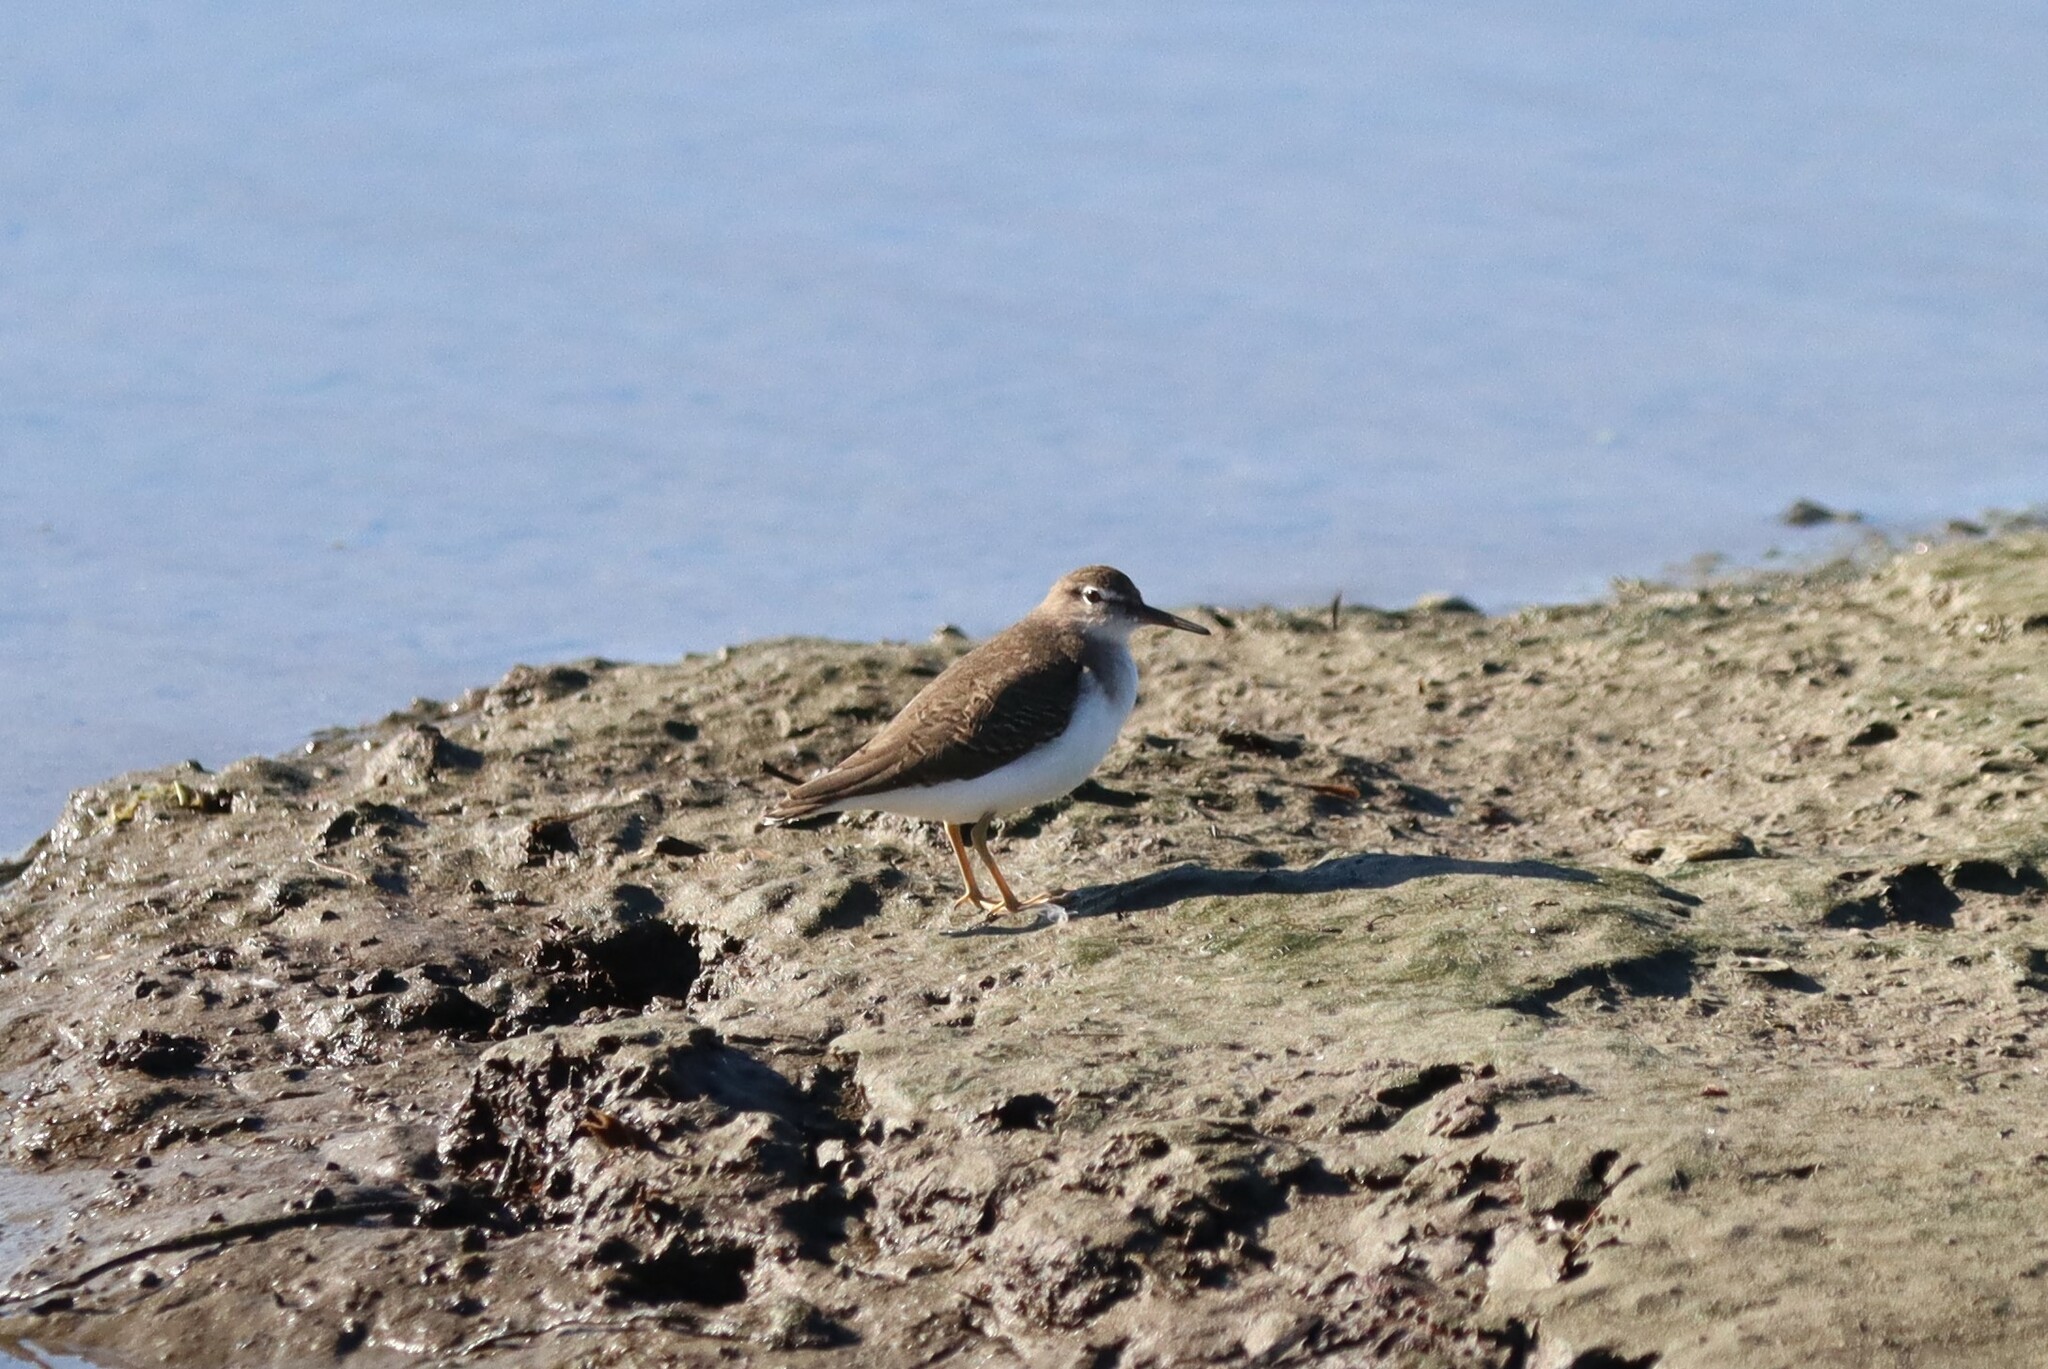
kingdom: Animalia
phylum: Chordata
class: Aves
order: Charadriiformes
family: Scolopacidae
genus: Actitis
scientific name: Actitis macularius
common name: Spotted sandpiper
